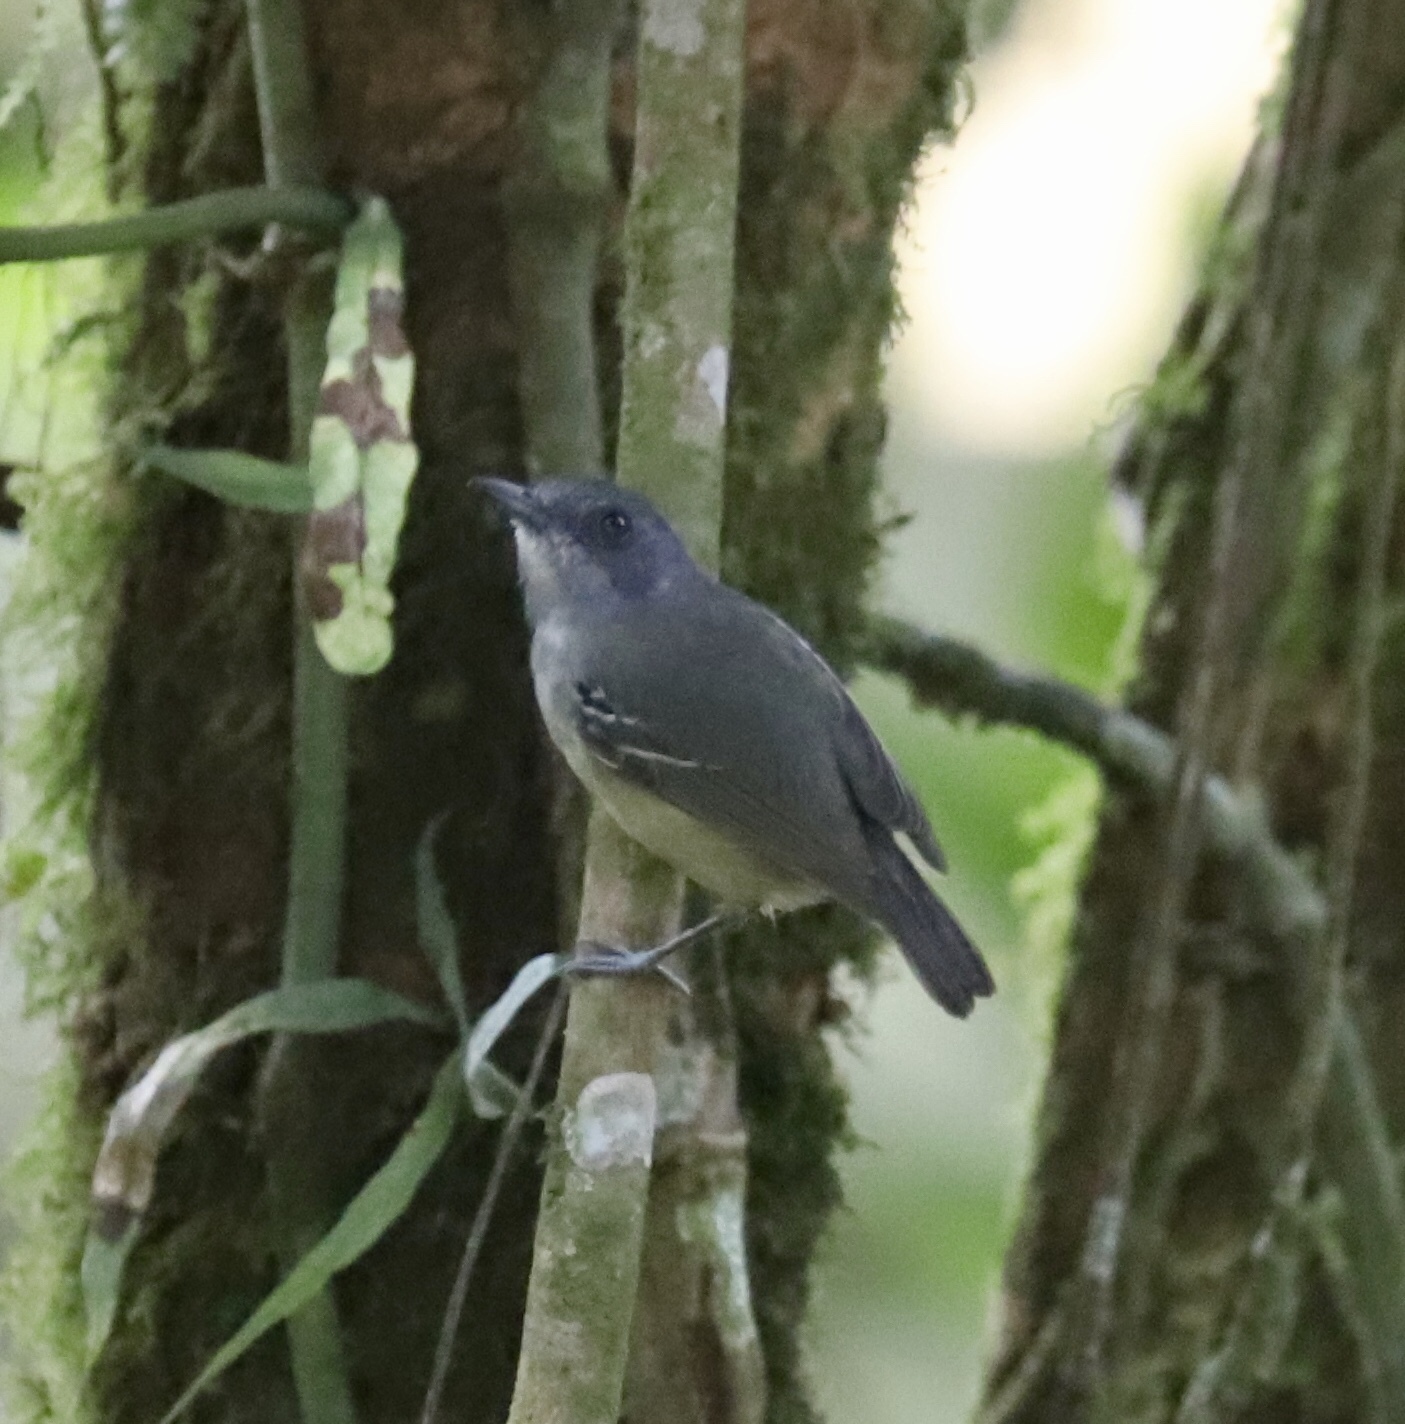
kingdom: Animalia
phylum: Chordata
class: Aves
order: Passeriformes
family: Thamnophilidae
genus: Dysithamnus
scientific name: Dysithamnus mentalis
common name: Plain antvireo
